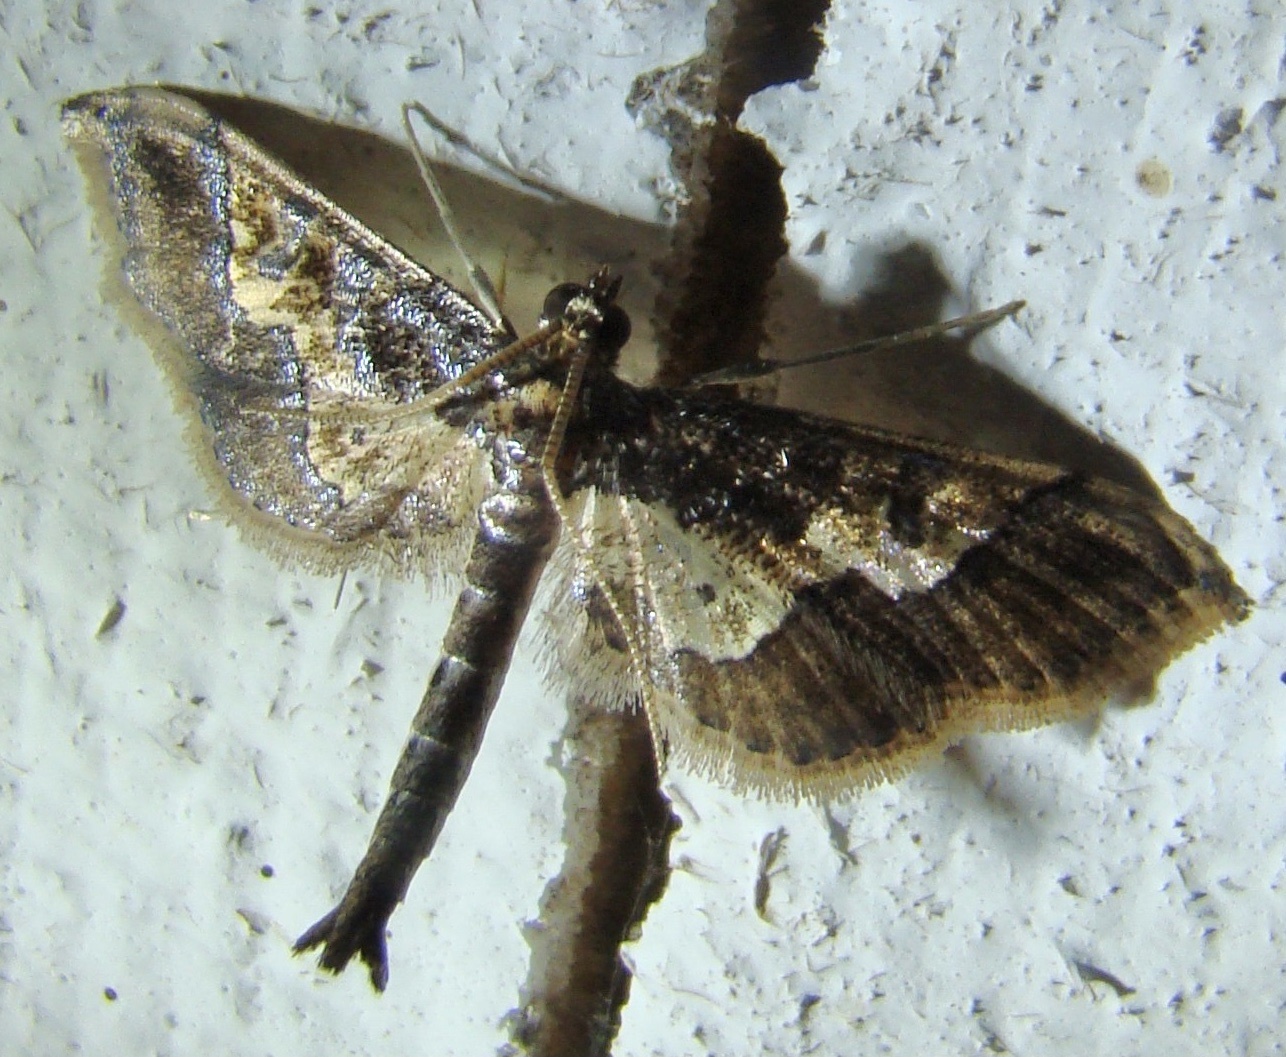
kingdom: Animalia
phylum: Arthropoda
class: Insecta
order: Lepidoptera
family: Crambidae
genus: Hydriris
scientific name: Hydriris ornatalis
